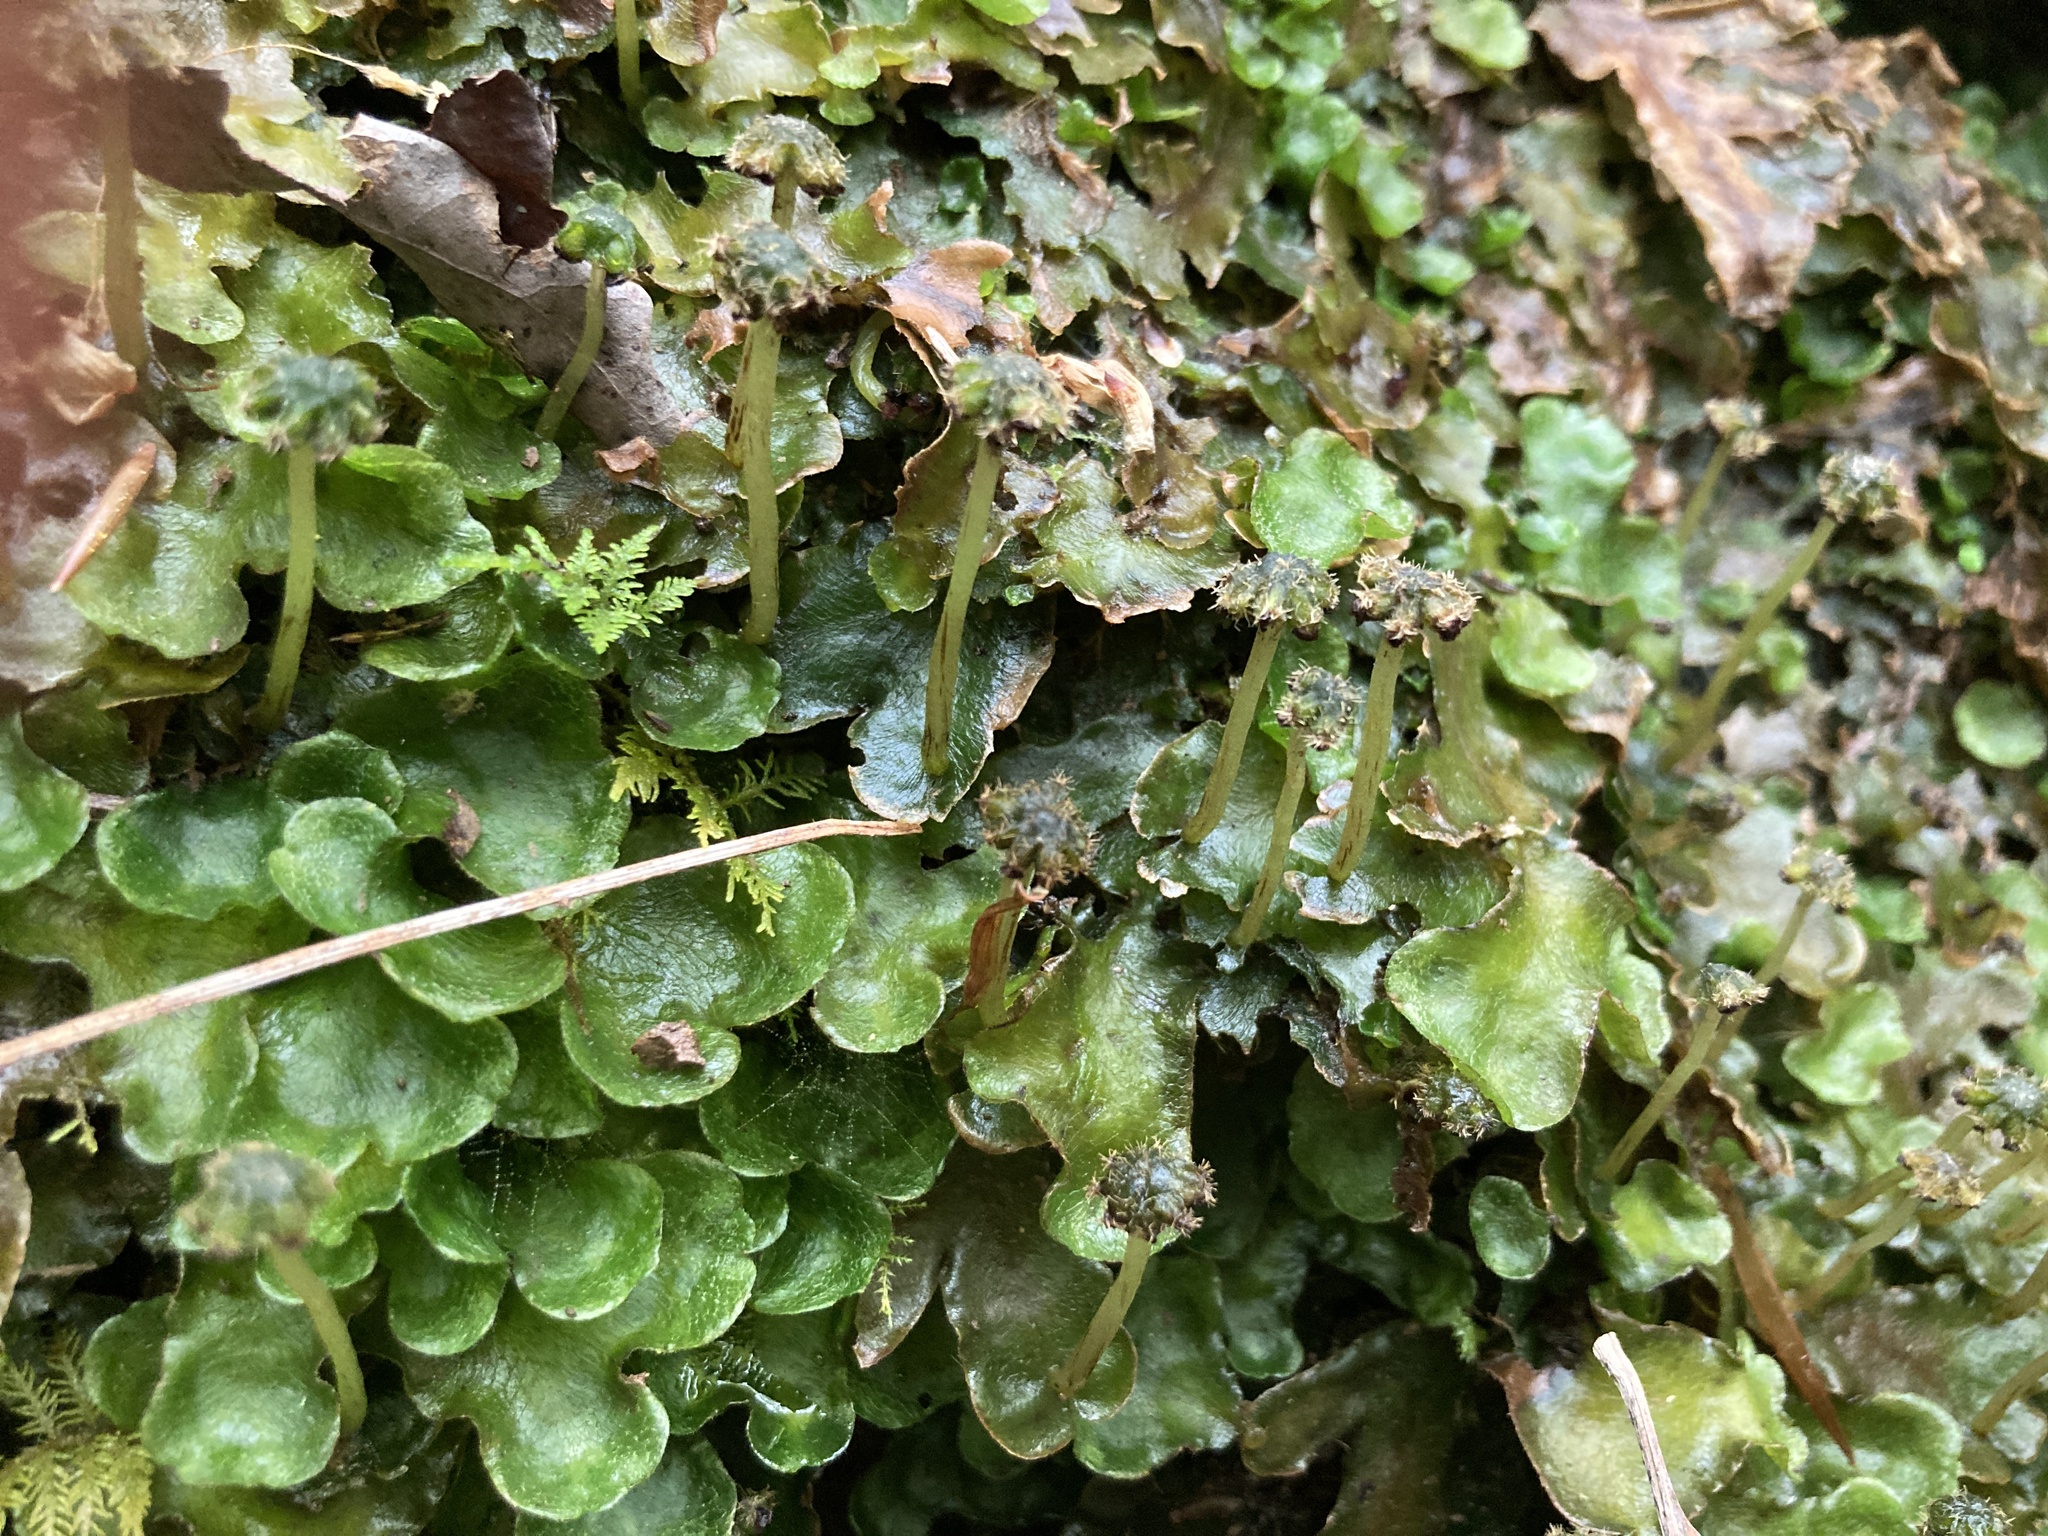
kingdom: Plantae
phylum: Marchantiophyta
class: Marchantiopsida
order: Marchantiales
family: Dumortieraceae
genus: Dumortiera
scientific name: Dumortiera hirsuta
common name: Dumortier's liverwort
